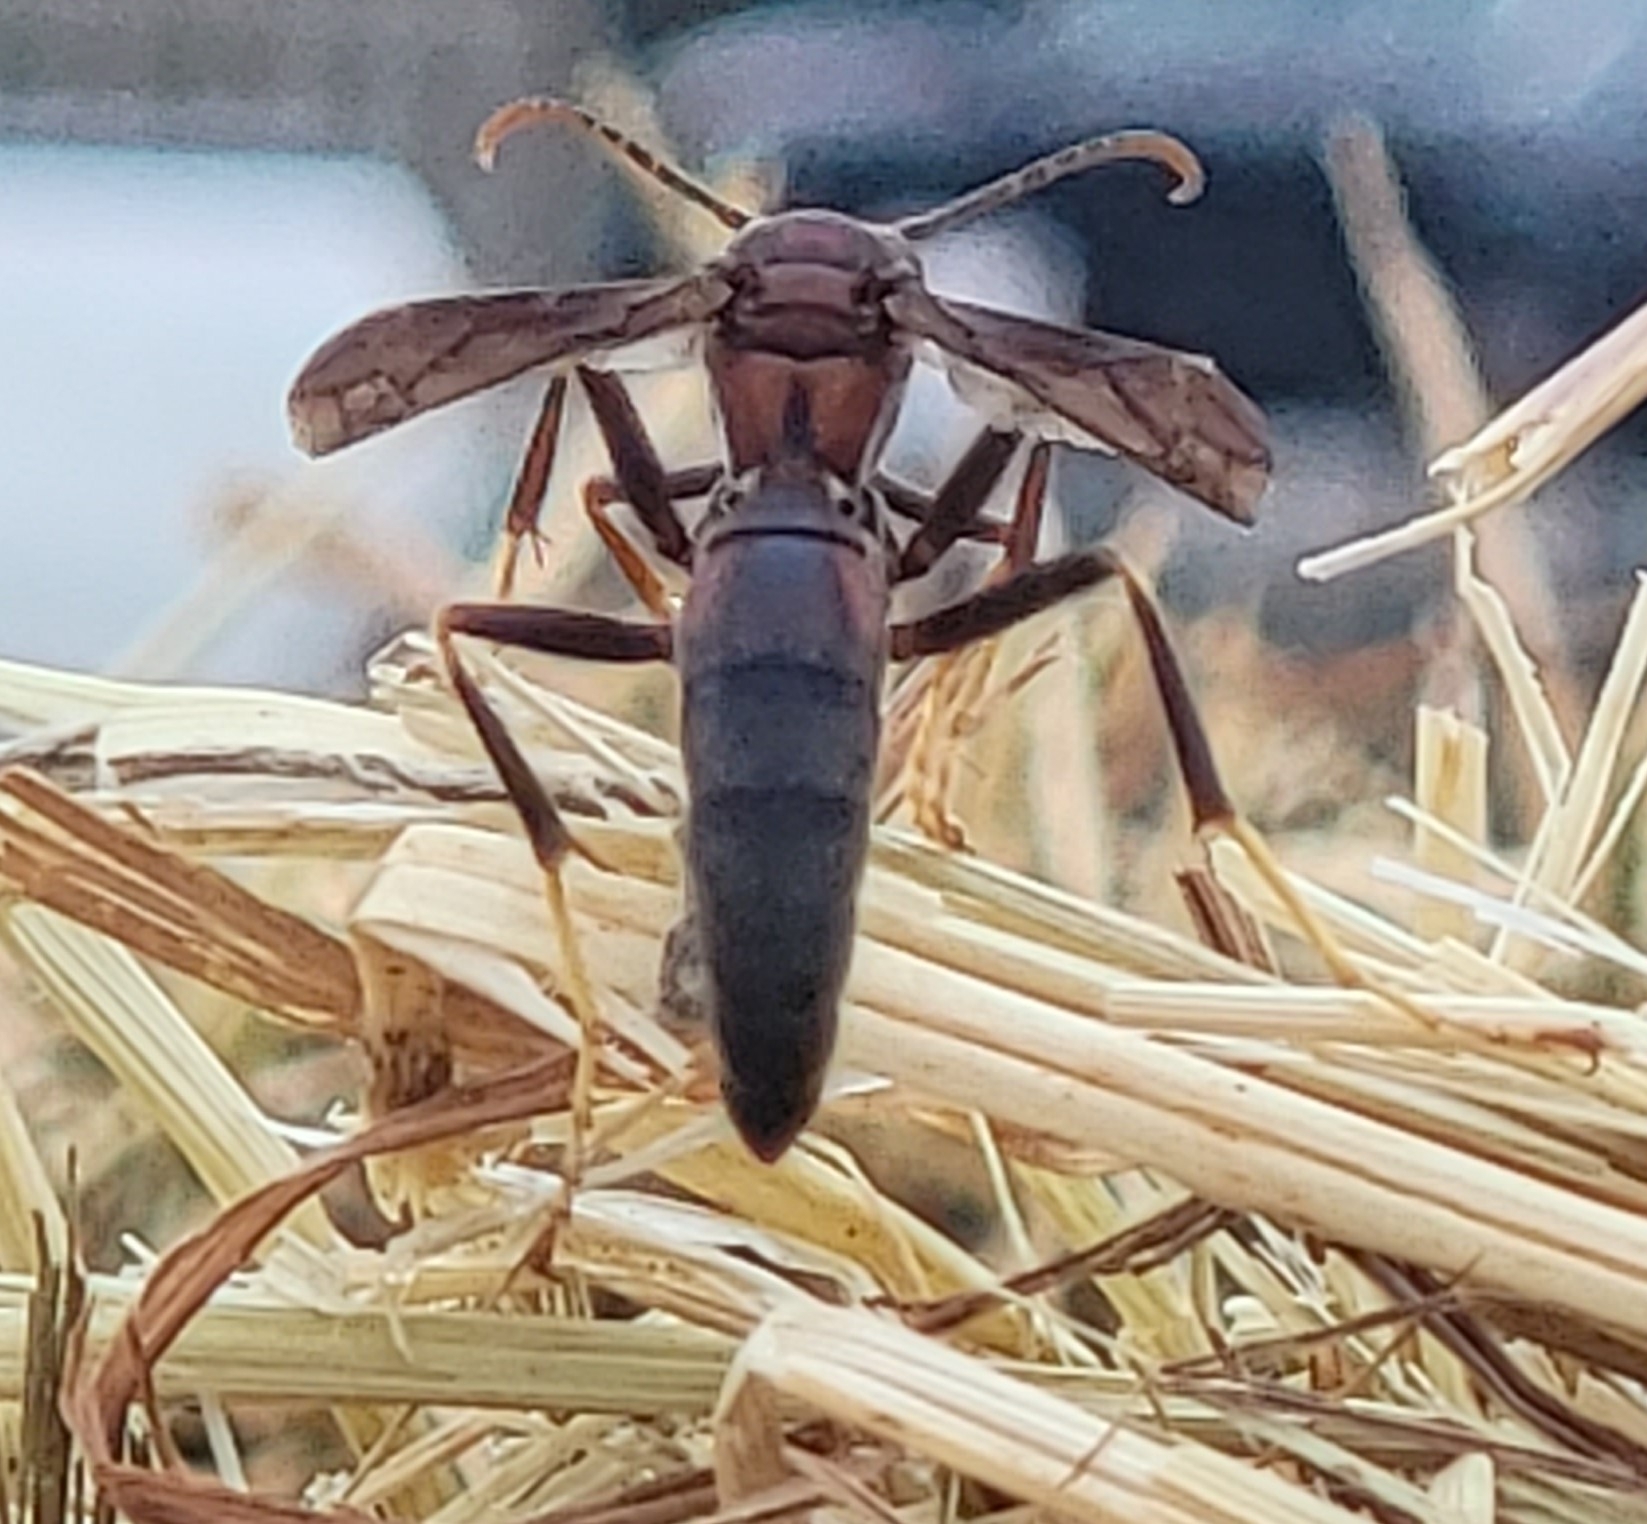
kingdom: Animalia
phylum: Arthropoda
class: Insecta
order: Hymenoptera
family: Eumenidae
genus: Polistes
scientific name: Polistes metricus
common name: Metric paper wasp
